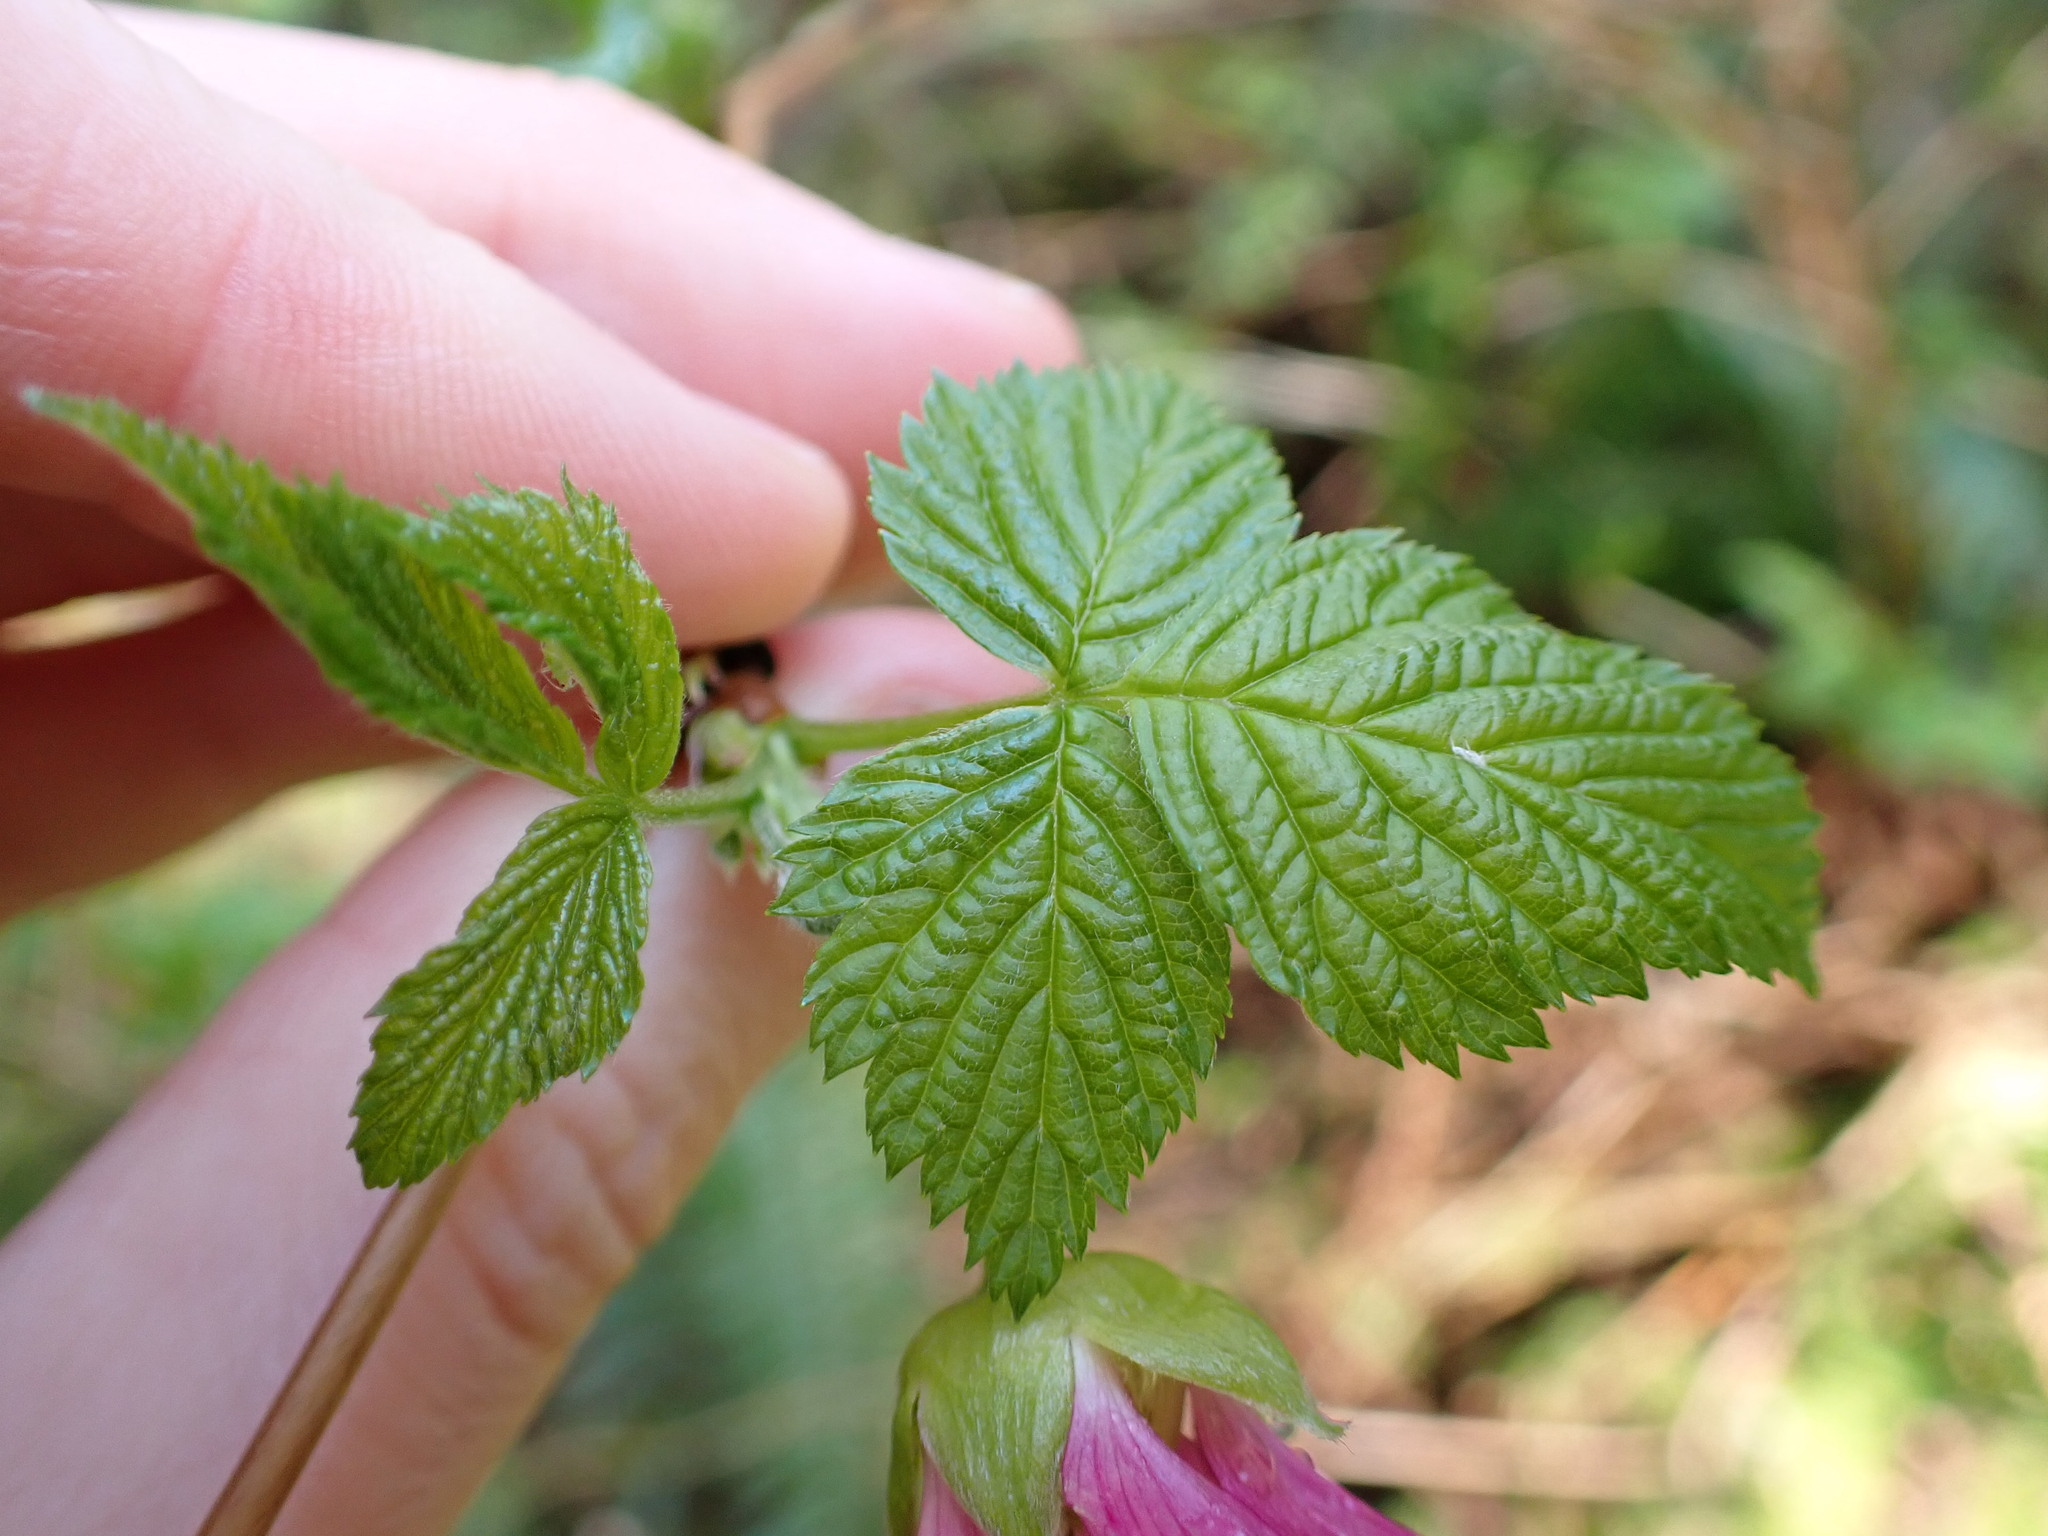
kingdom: Plantae
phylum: Tracheophyta
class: Magnoliopsida
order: Rosales
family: Rosaceae
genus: Rubus
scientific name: Rubus spectabilis
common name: Salmonberry
